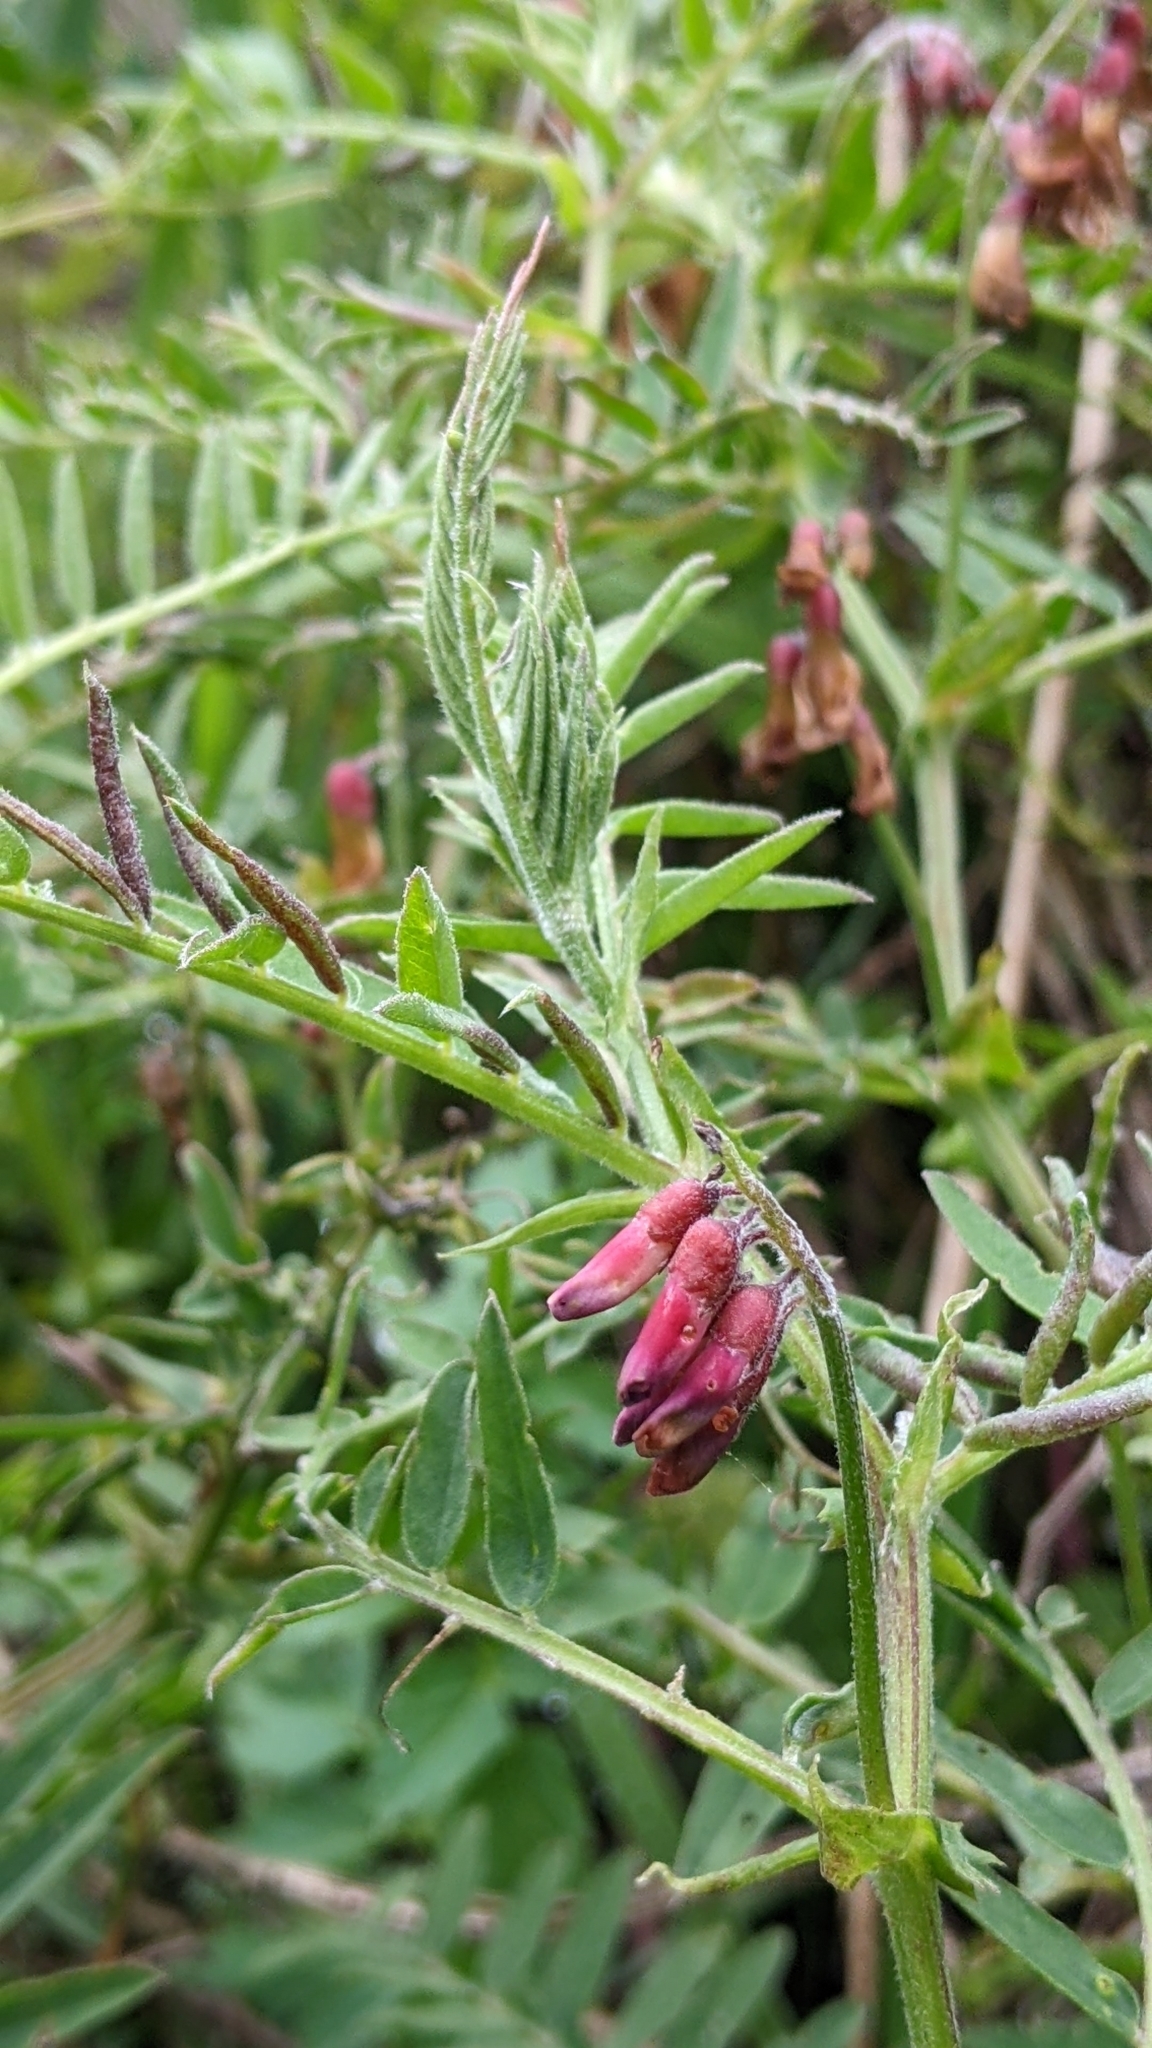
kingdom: Plantae
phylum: Tracheophyta
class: Magnoliopsida
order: Fabales
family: Fabaceae
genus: Vicia
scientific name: Vicia
